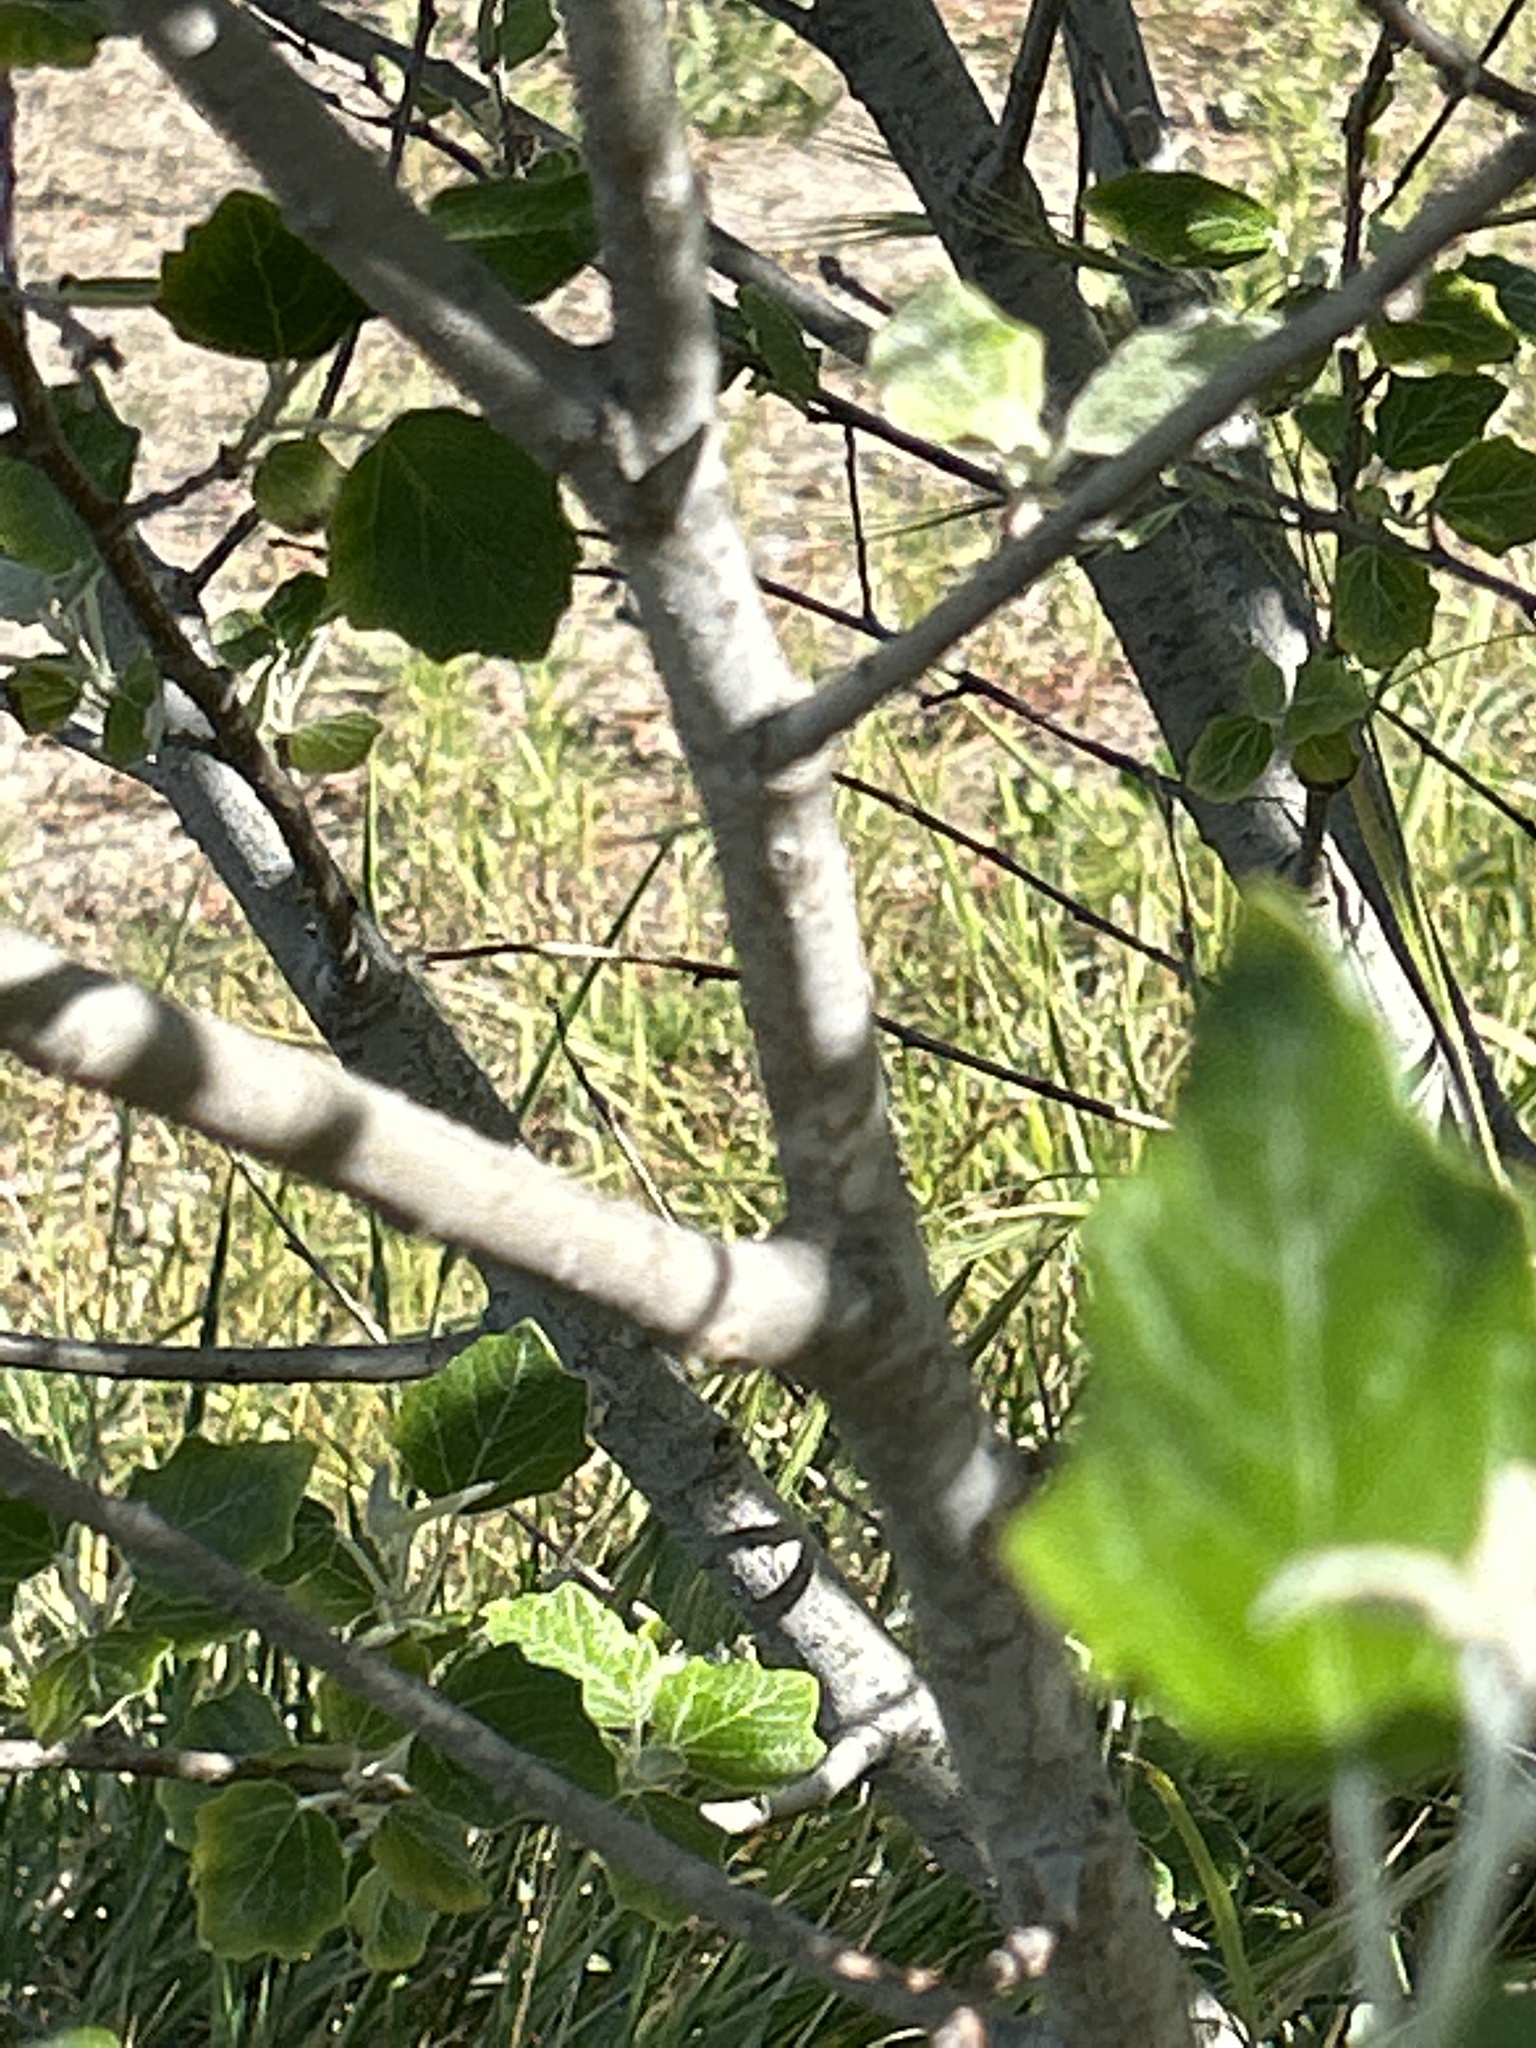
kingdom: Plantae
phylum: Tracheophyta
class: Magnoliopsida
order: Malpighiales
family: Salicaceae
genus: Populus
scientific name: Populus alba
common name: White poplar
